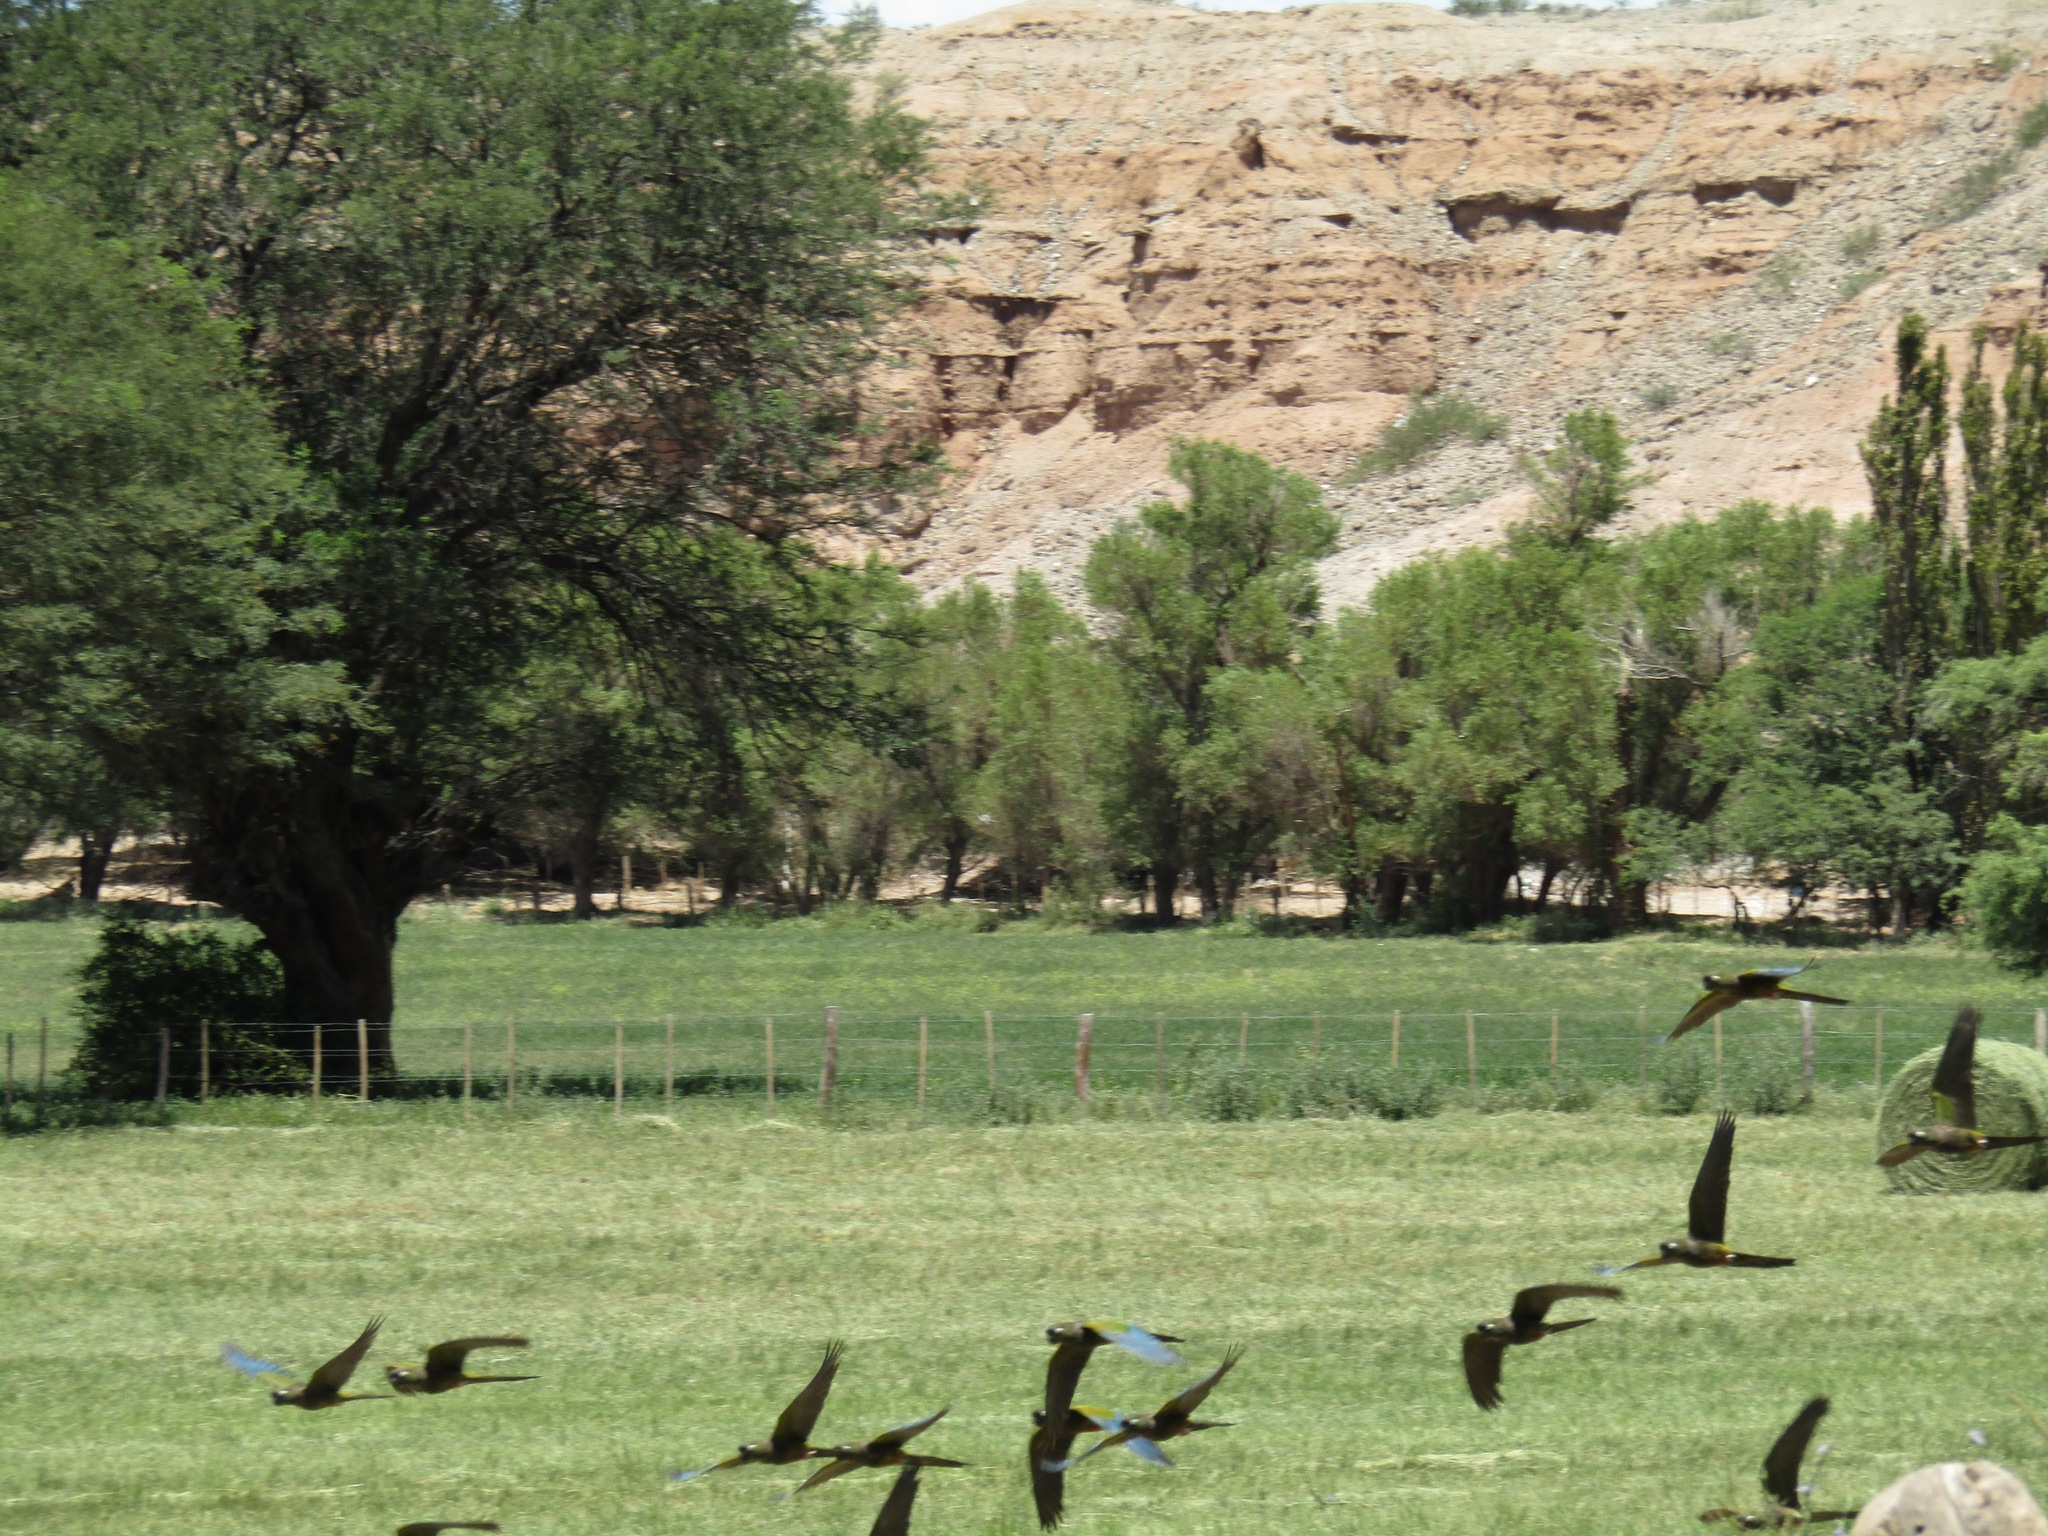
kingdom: Animalia
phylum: Chordata
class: Aves
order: Psittaciformes
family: Psittacidae
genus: Cyanoliseus
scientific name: Cyanoliseus patagonus
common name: Burrowing parrot
